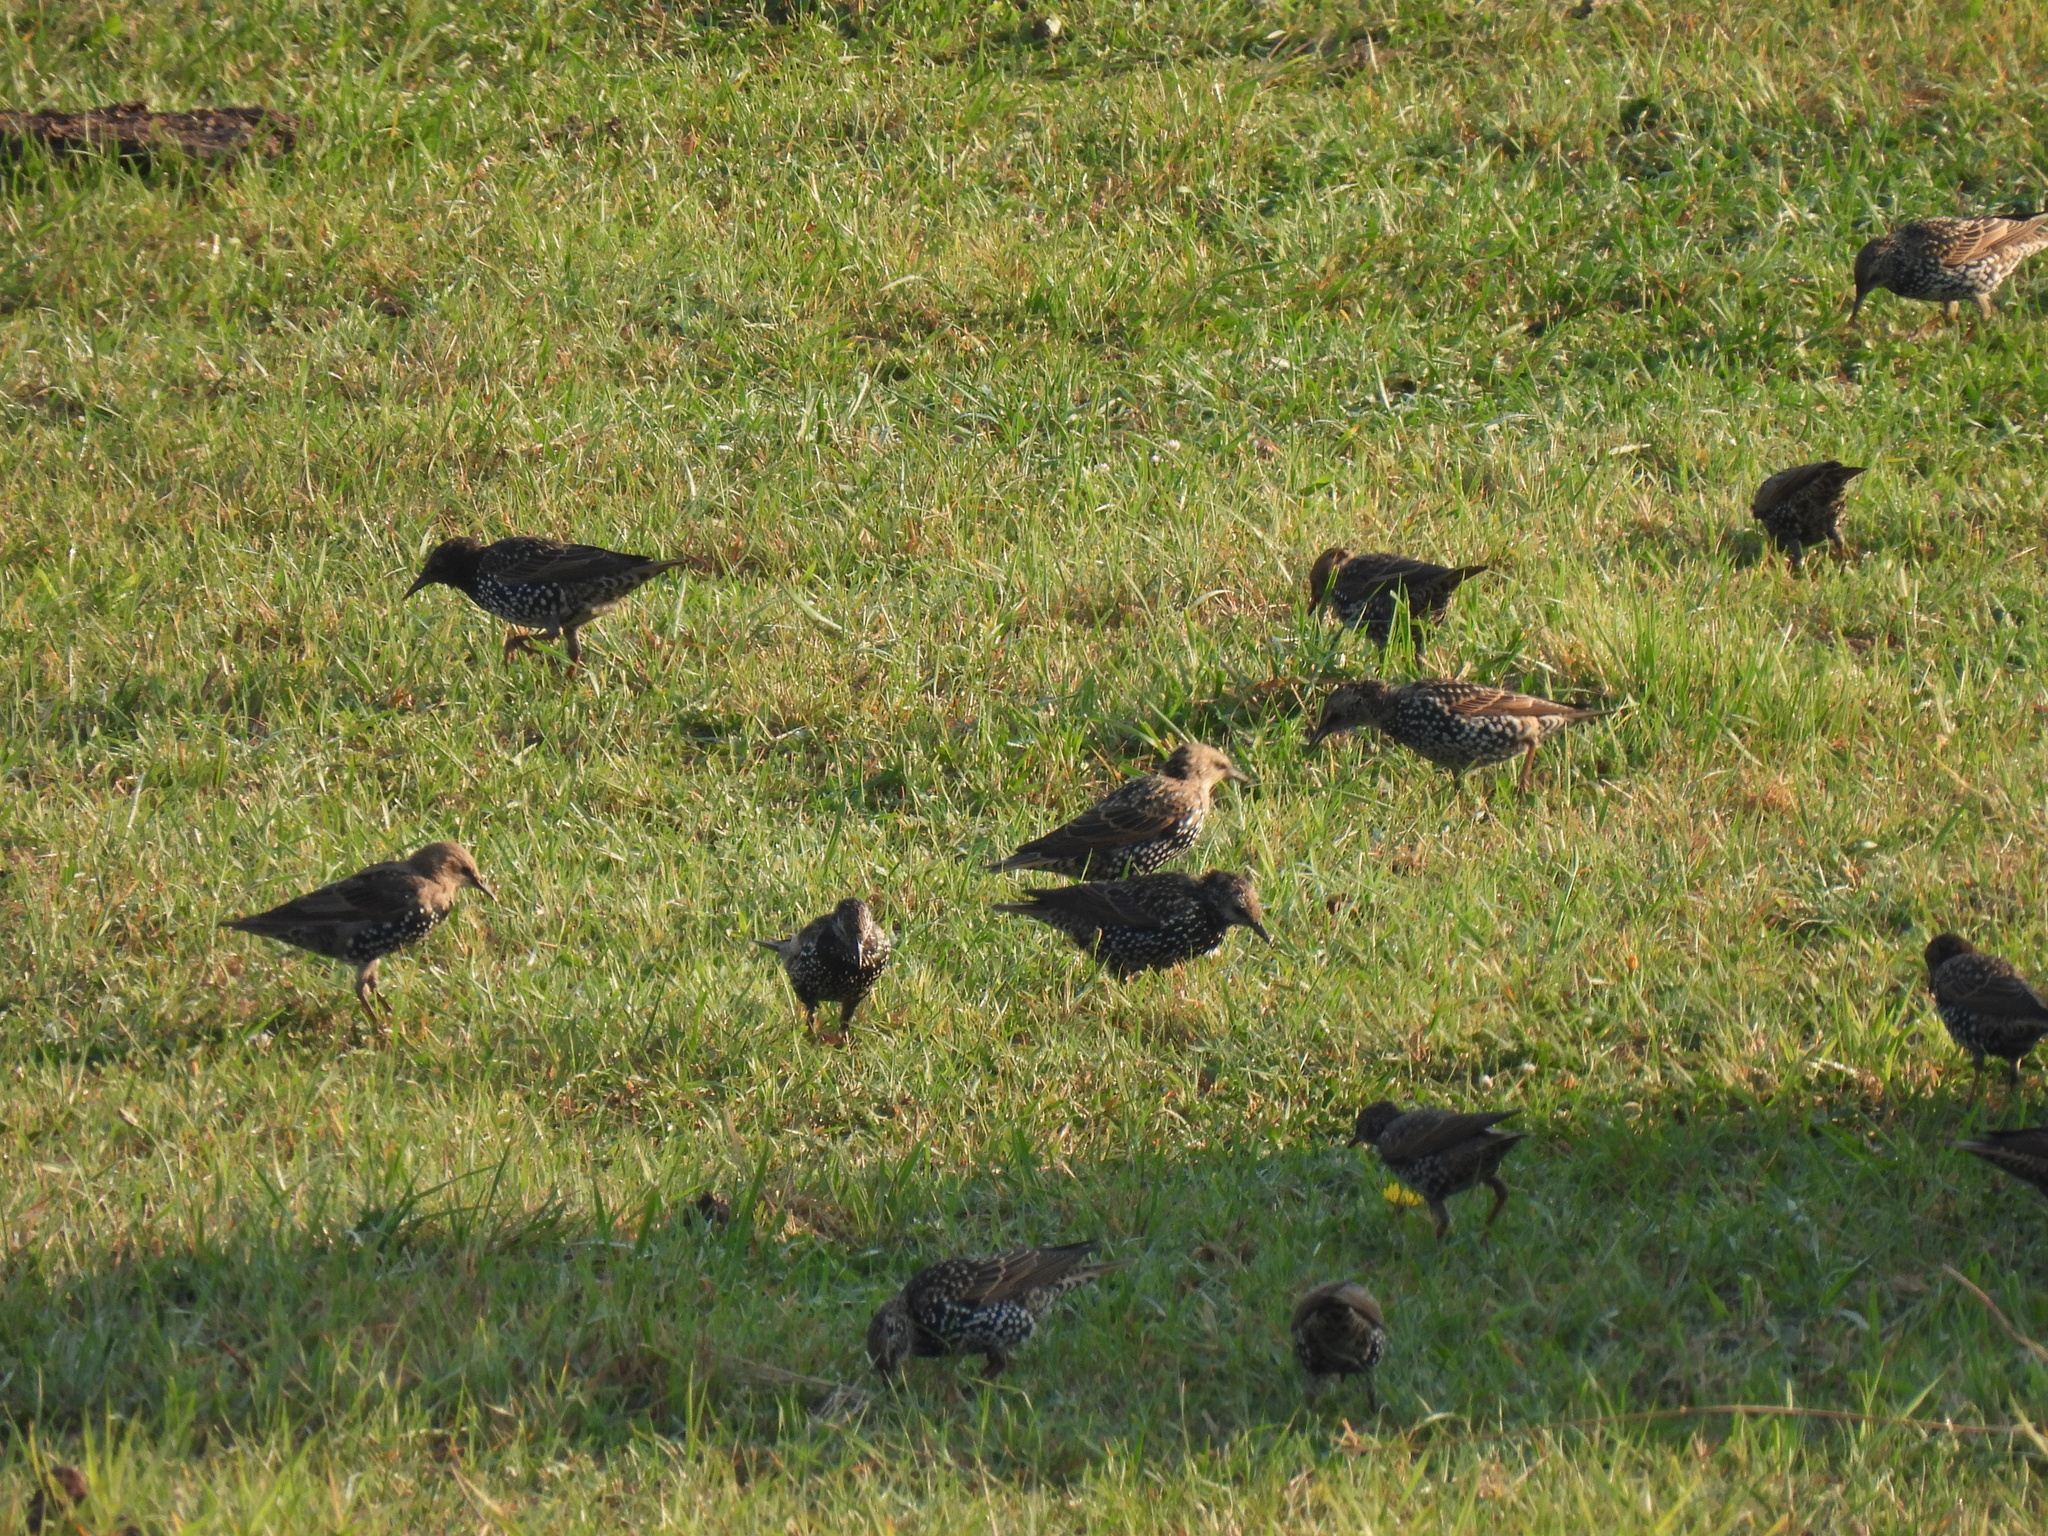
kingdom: Animalia
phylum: Chordata
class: Aves
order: Passeriformes
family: Sturnidae
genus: Sturnus
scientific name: Sturnus vulgaris
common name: Common starling
